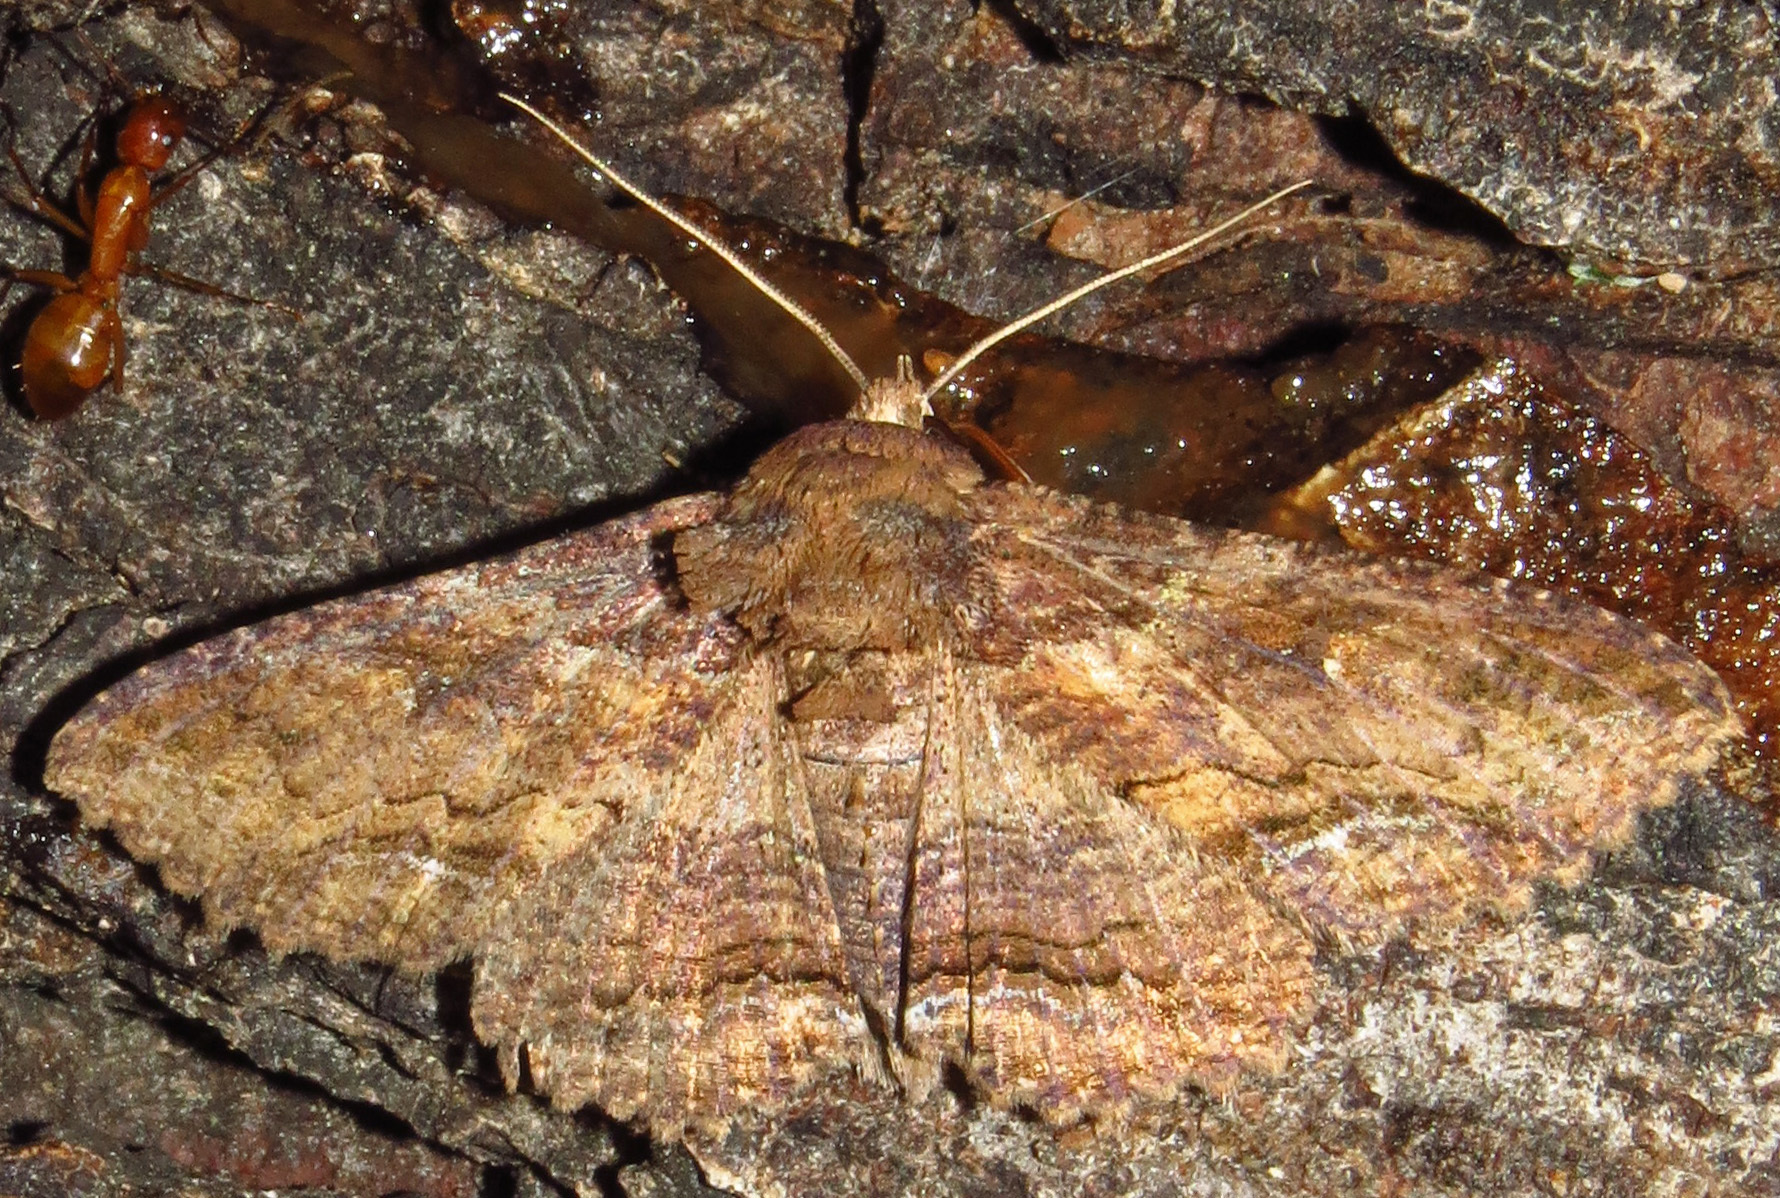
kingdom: Animalia
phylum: Arthropoda
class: Insecta
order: Lepidoptera
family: Erebidae
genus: Zale
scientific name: Zale lunata
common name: Lunate zale moth
